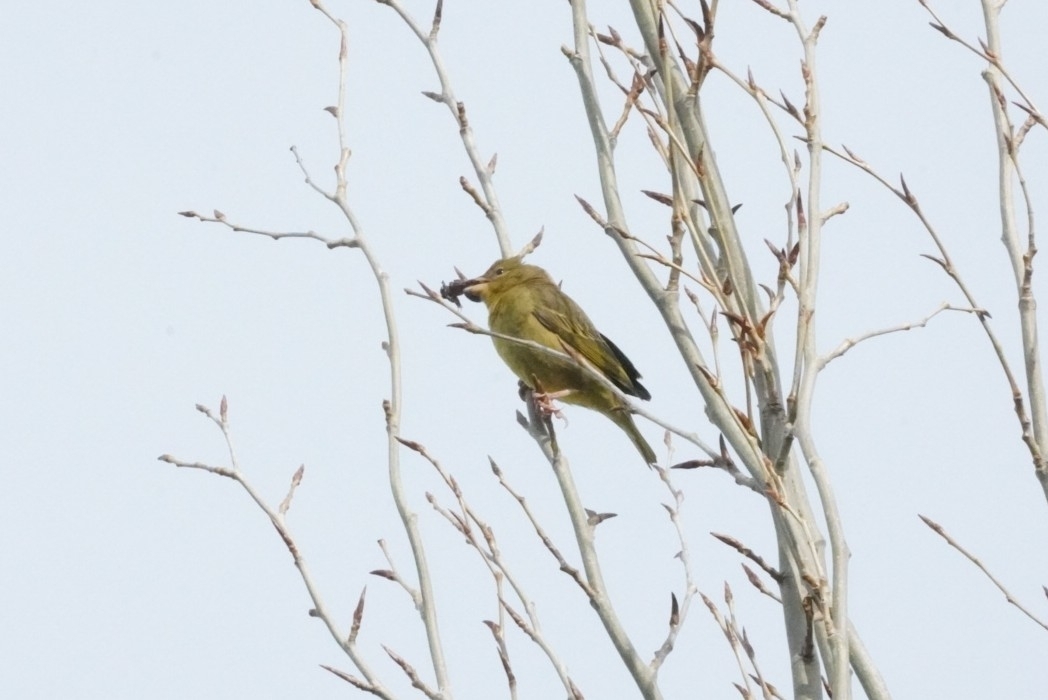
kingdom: Animalia
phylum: Chordata
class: Aves
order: Passeriformes
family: Ploceidae
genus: Ploceus
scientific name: Ploceus capensis
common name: Cape weaver
